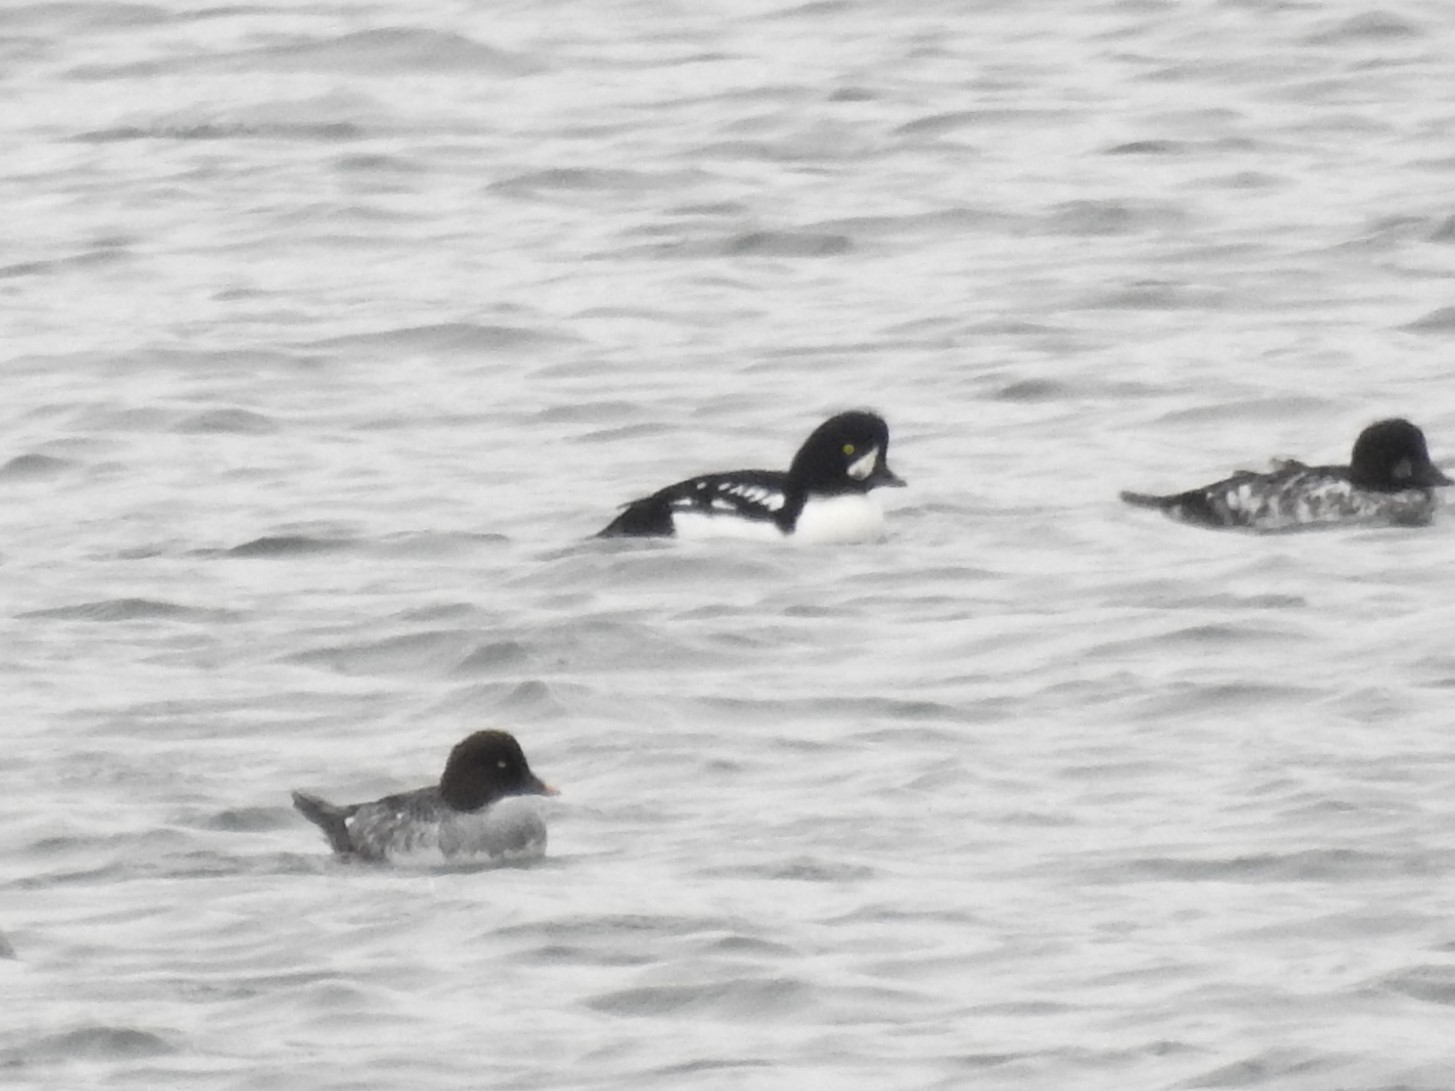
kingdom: Animalia
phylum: Chordata
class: Aves
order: Anseriformes
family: Anatidae
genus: Bucephala
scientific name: Bucephala islandica
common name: Barrow's goldeneye
